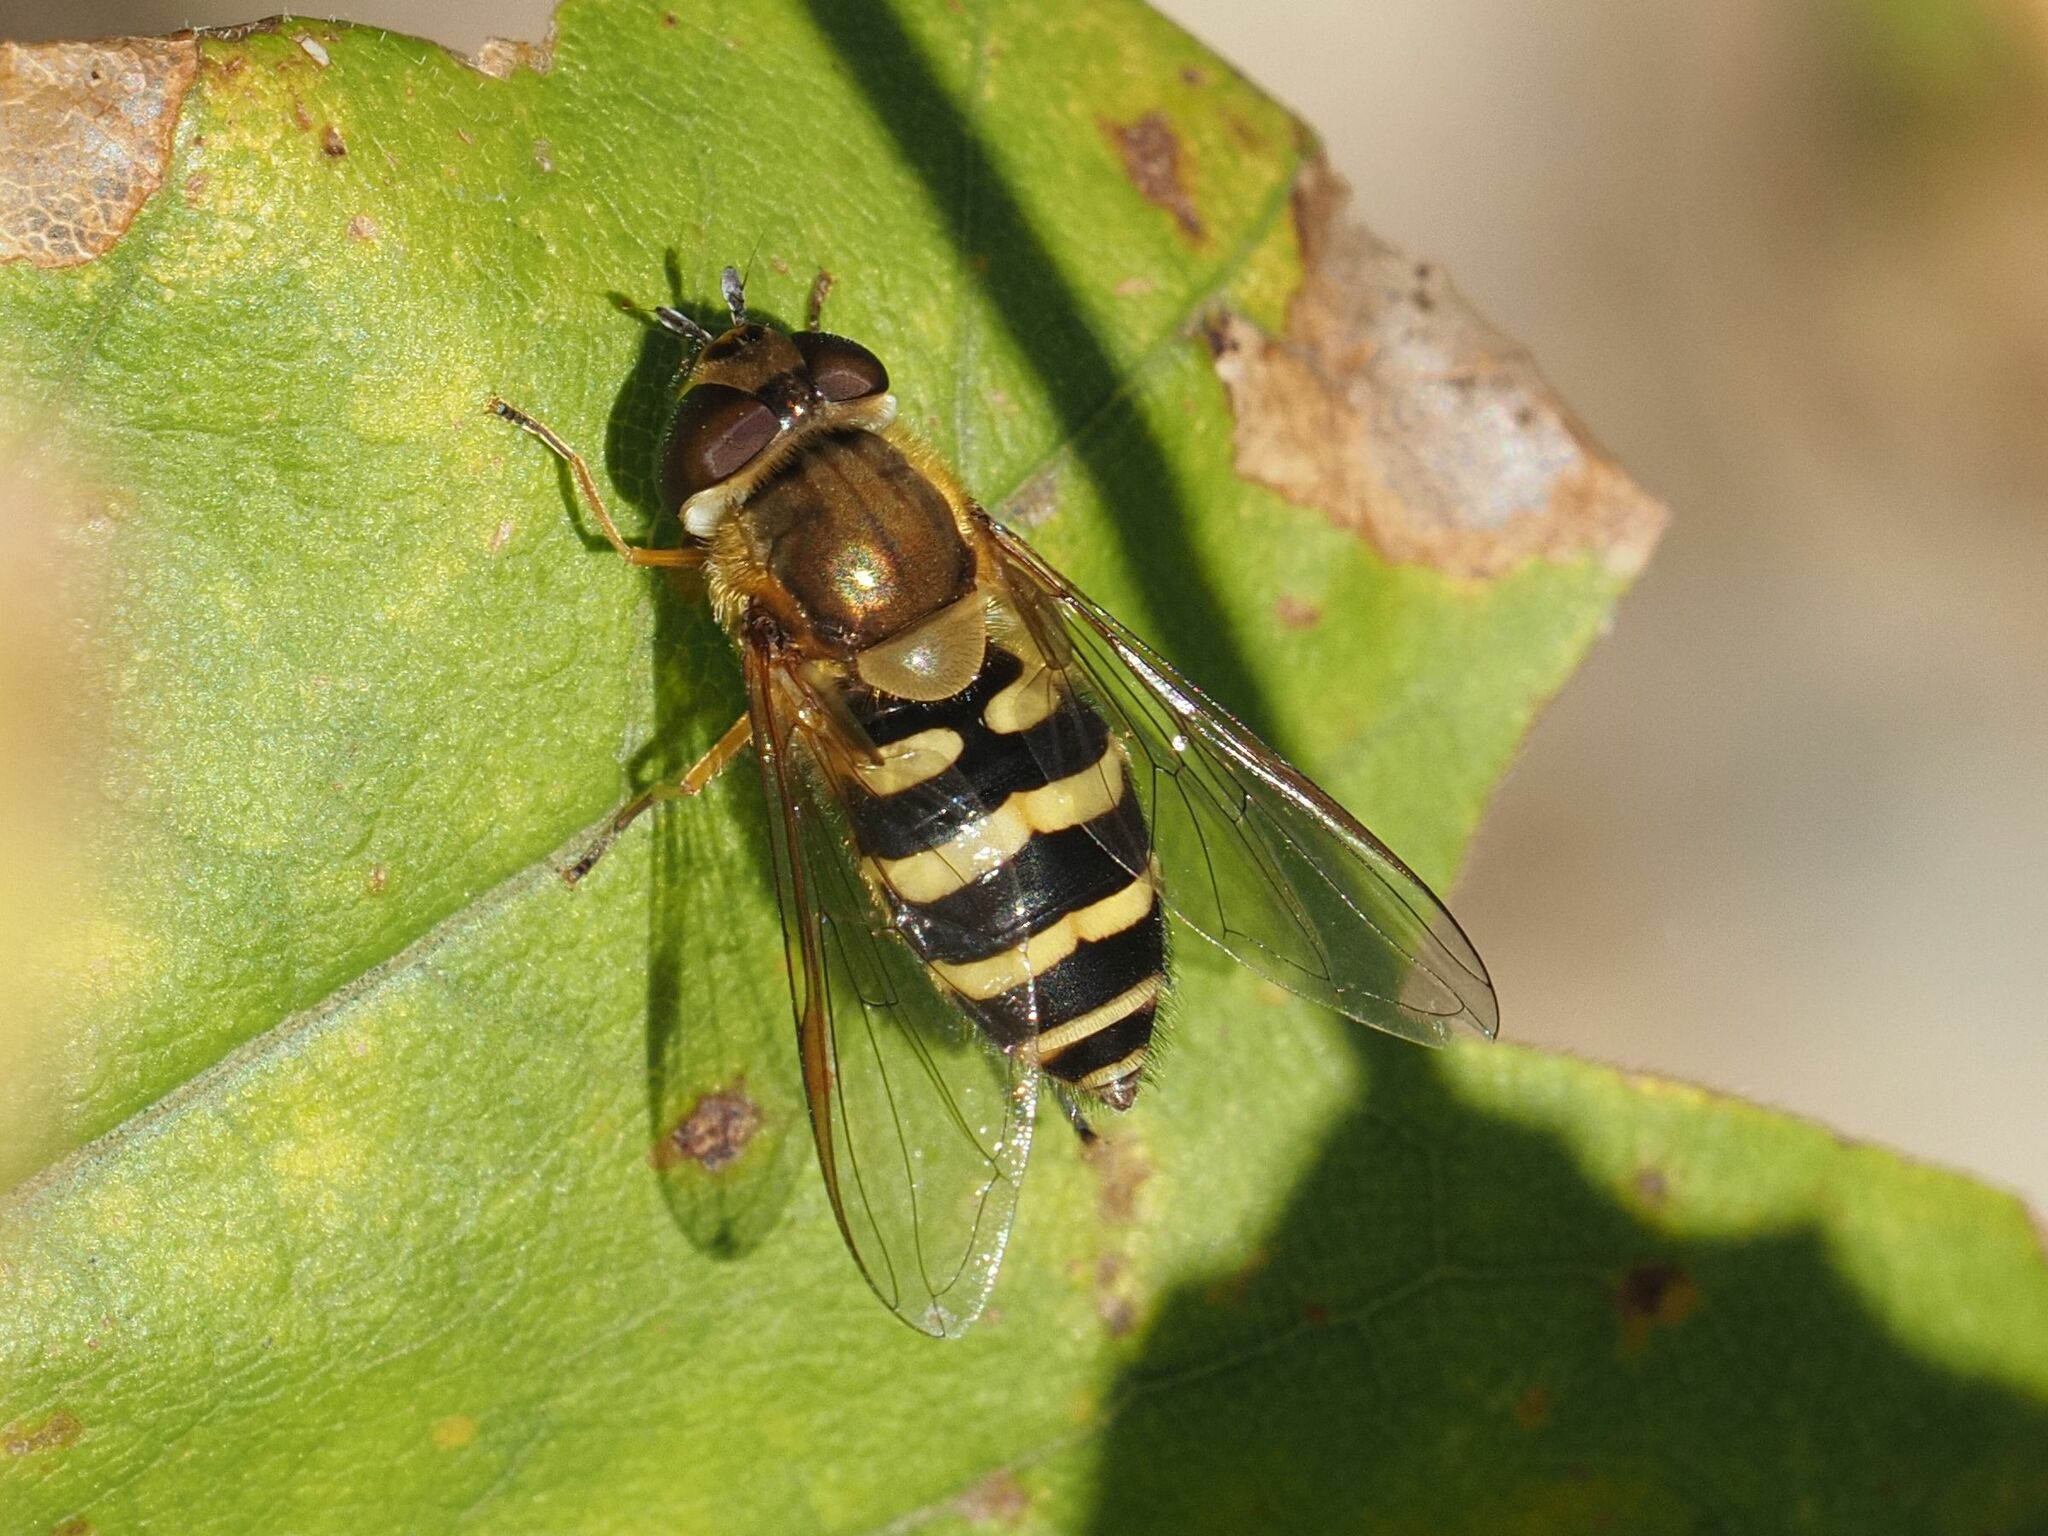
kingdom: Animalia
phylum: Arthropoda
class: Insecta
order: Diptera
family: Syrphidae
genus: Syrphus
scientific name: Syrphus torvus
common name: Hairy-eyed flower fly
